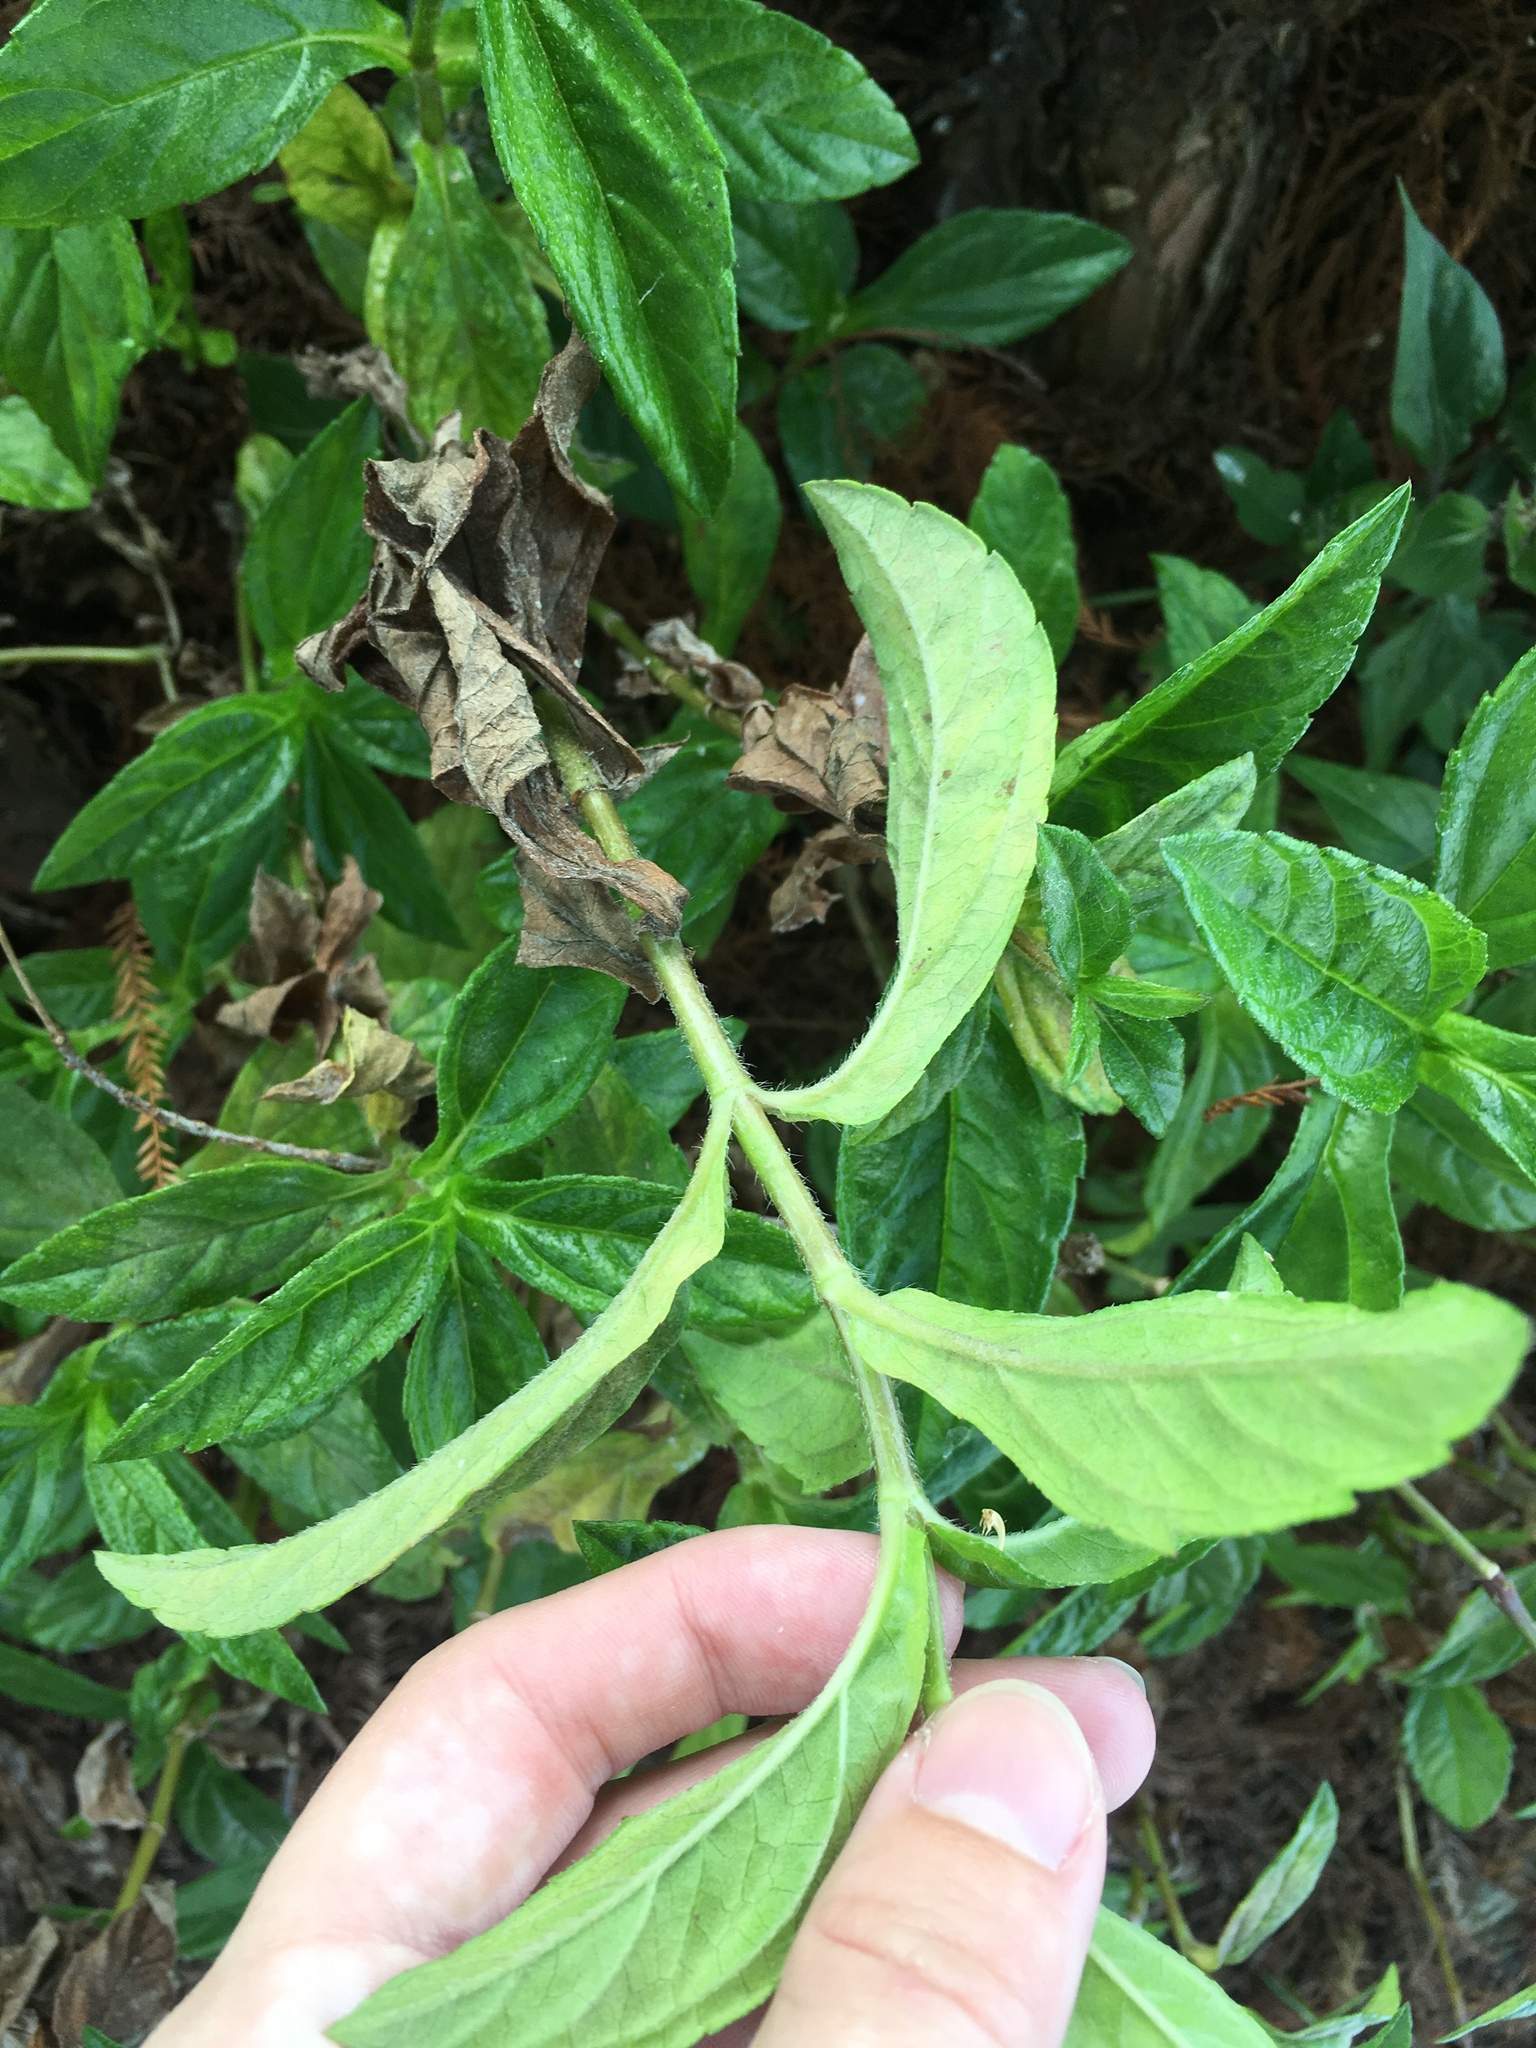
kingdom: Plantae
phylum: Tracheophyta
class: Magnoliopsida
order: Asterales
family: Asteraceae
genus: Sphagneticola
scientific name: Sphagneticola trilobata
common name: Bay biscayne creeping-oxeye
